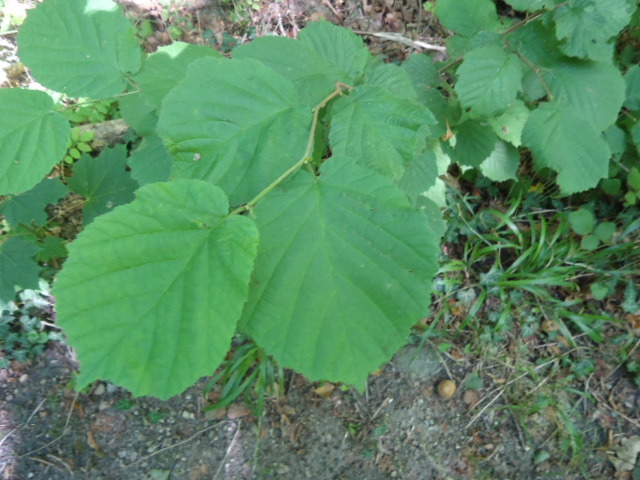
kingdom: Plantae
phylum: Tracheophyta
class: Magnoliopsida
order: Fagales
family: Betulaceae
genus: Corylus
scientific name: Corylus avellana
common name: European hazel
